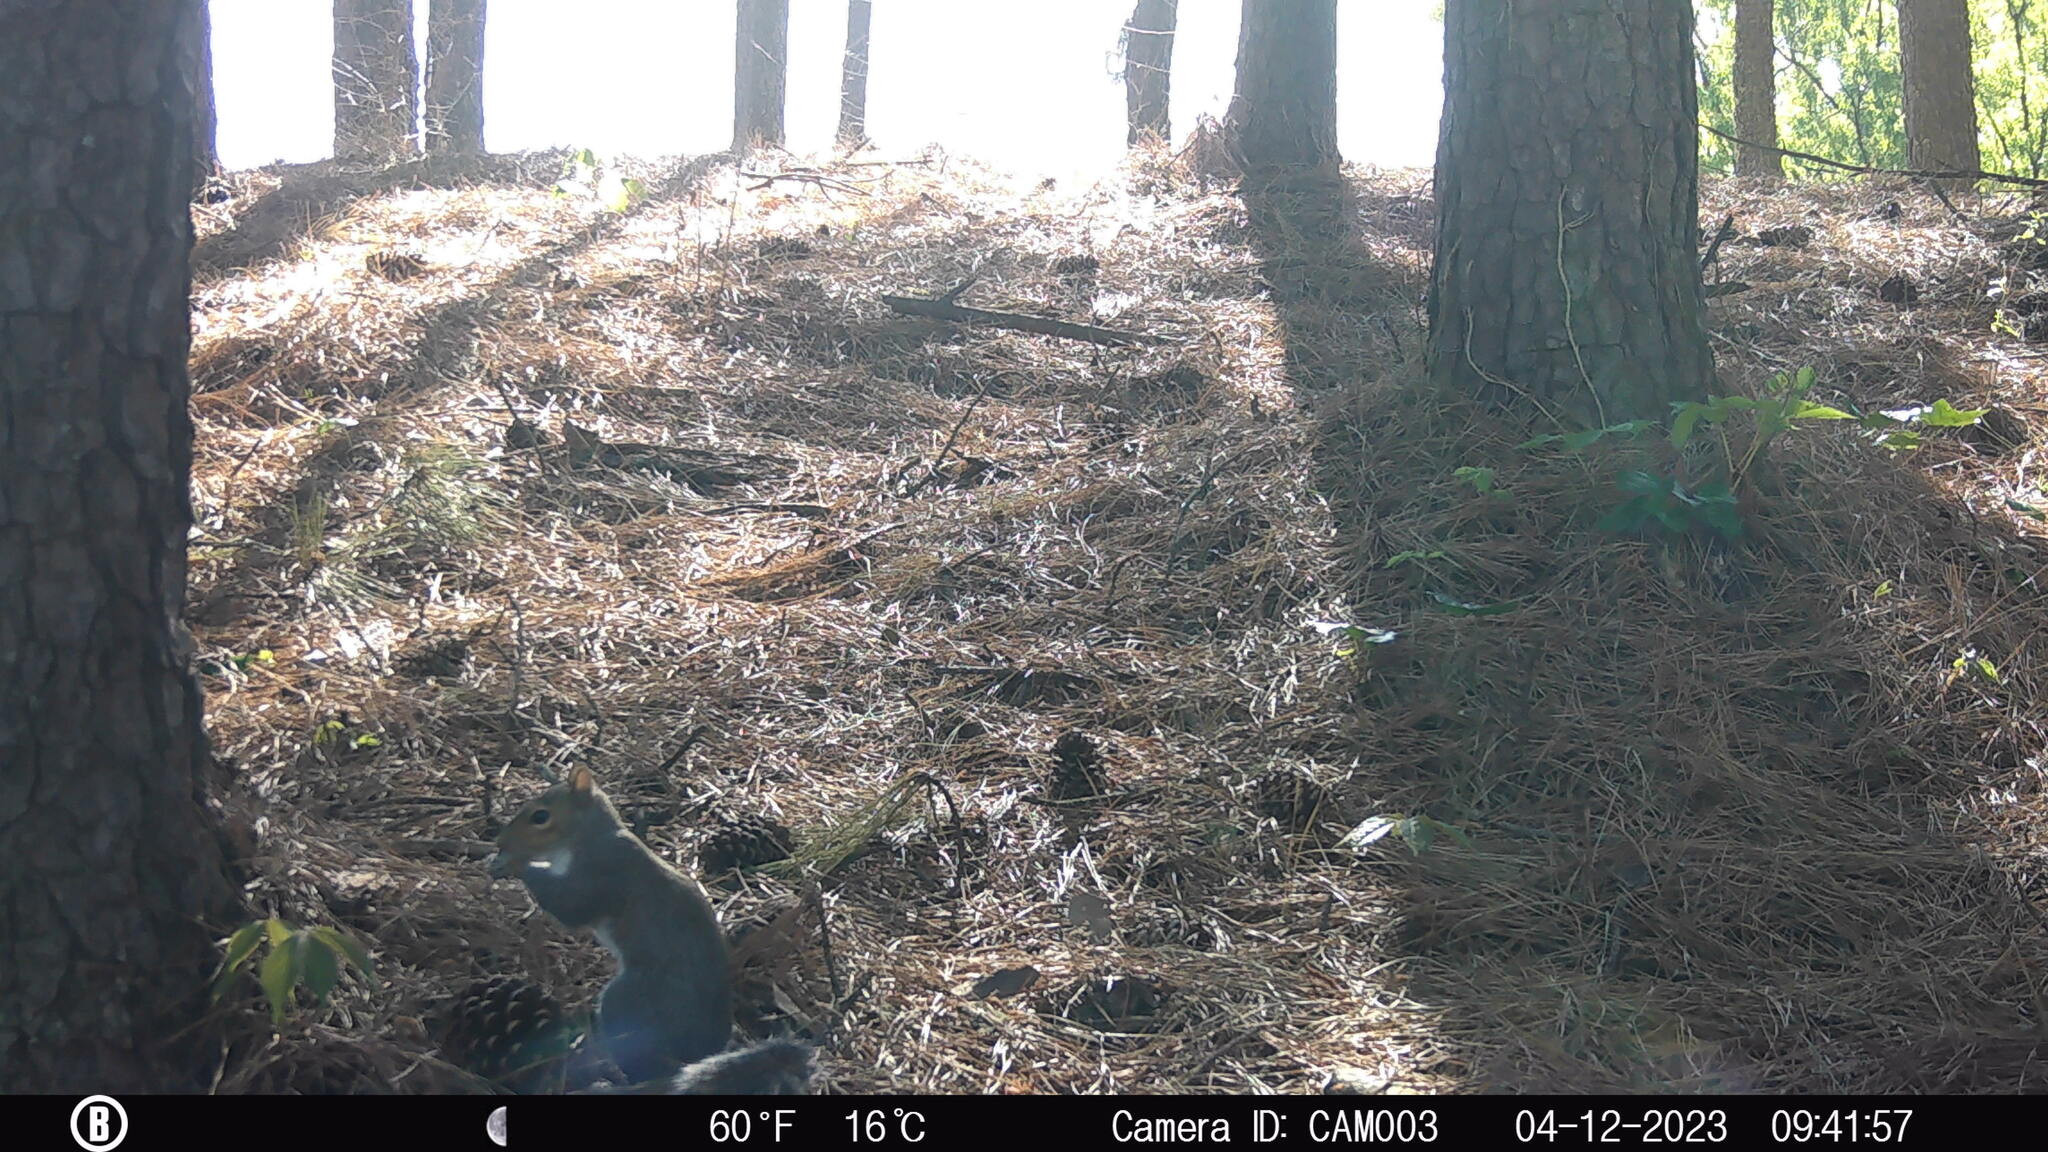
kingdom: Animalia
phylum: Chordata
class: Mammalia
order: Rodentia
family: Sciuridae
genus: Sciurus
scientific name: Sciurus carolinensis
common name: Eastern gray squirrel
